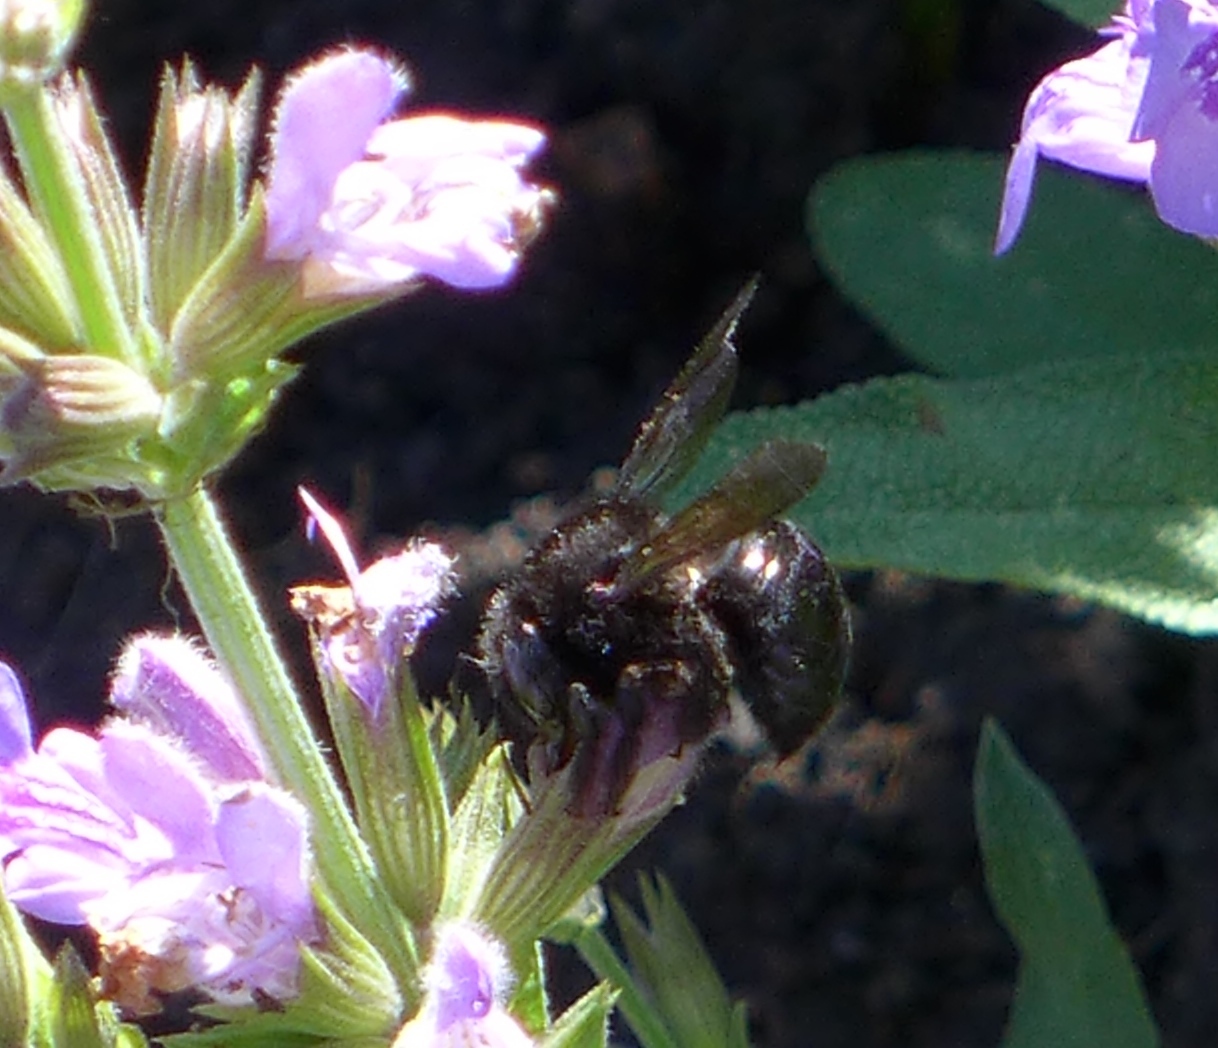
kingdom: Animalia
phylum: Arthropoda
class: Insecta
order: Hymenoptera
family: Apidae
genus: Xylocopa
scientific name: Xylocopa tabaniformis
